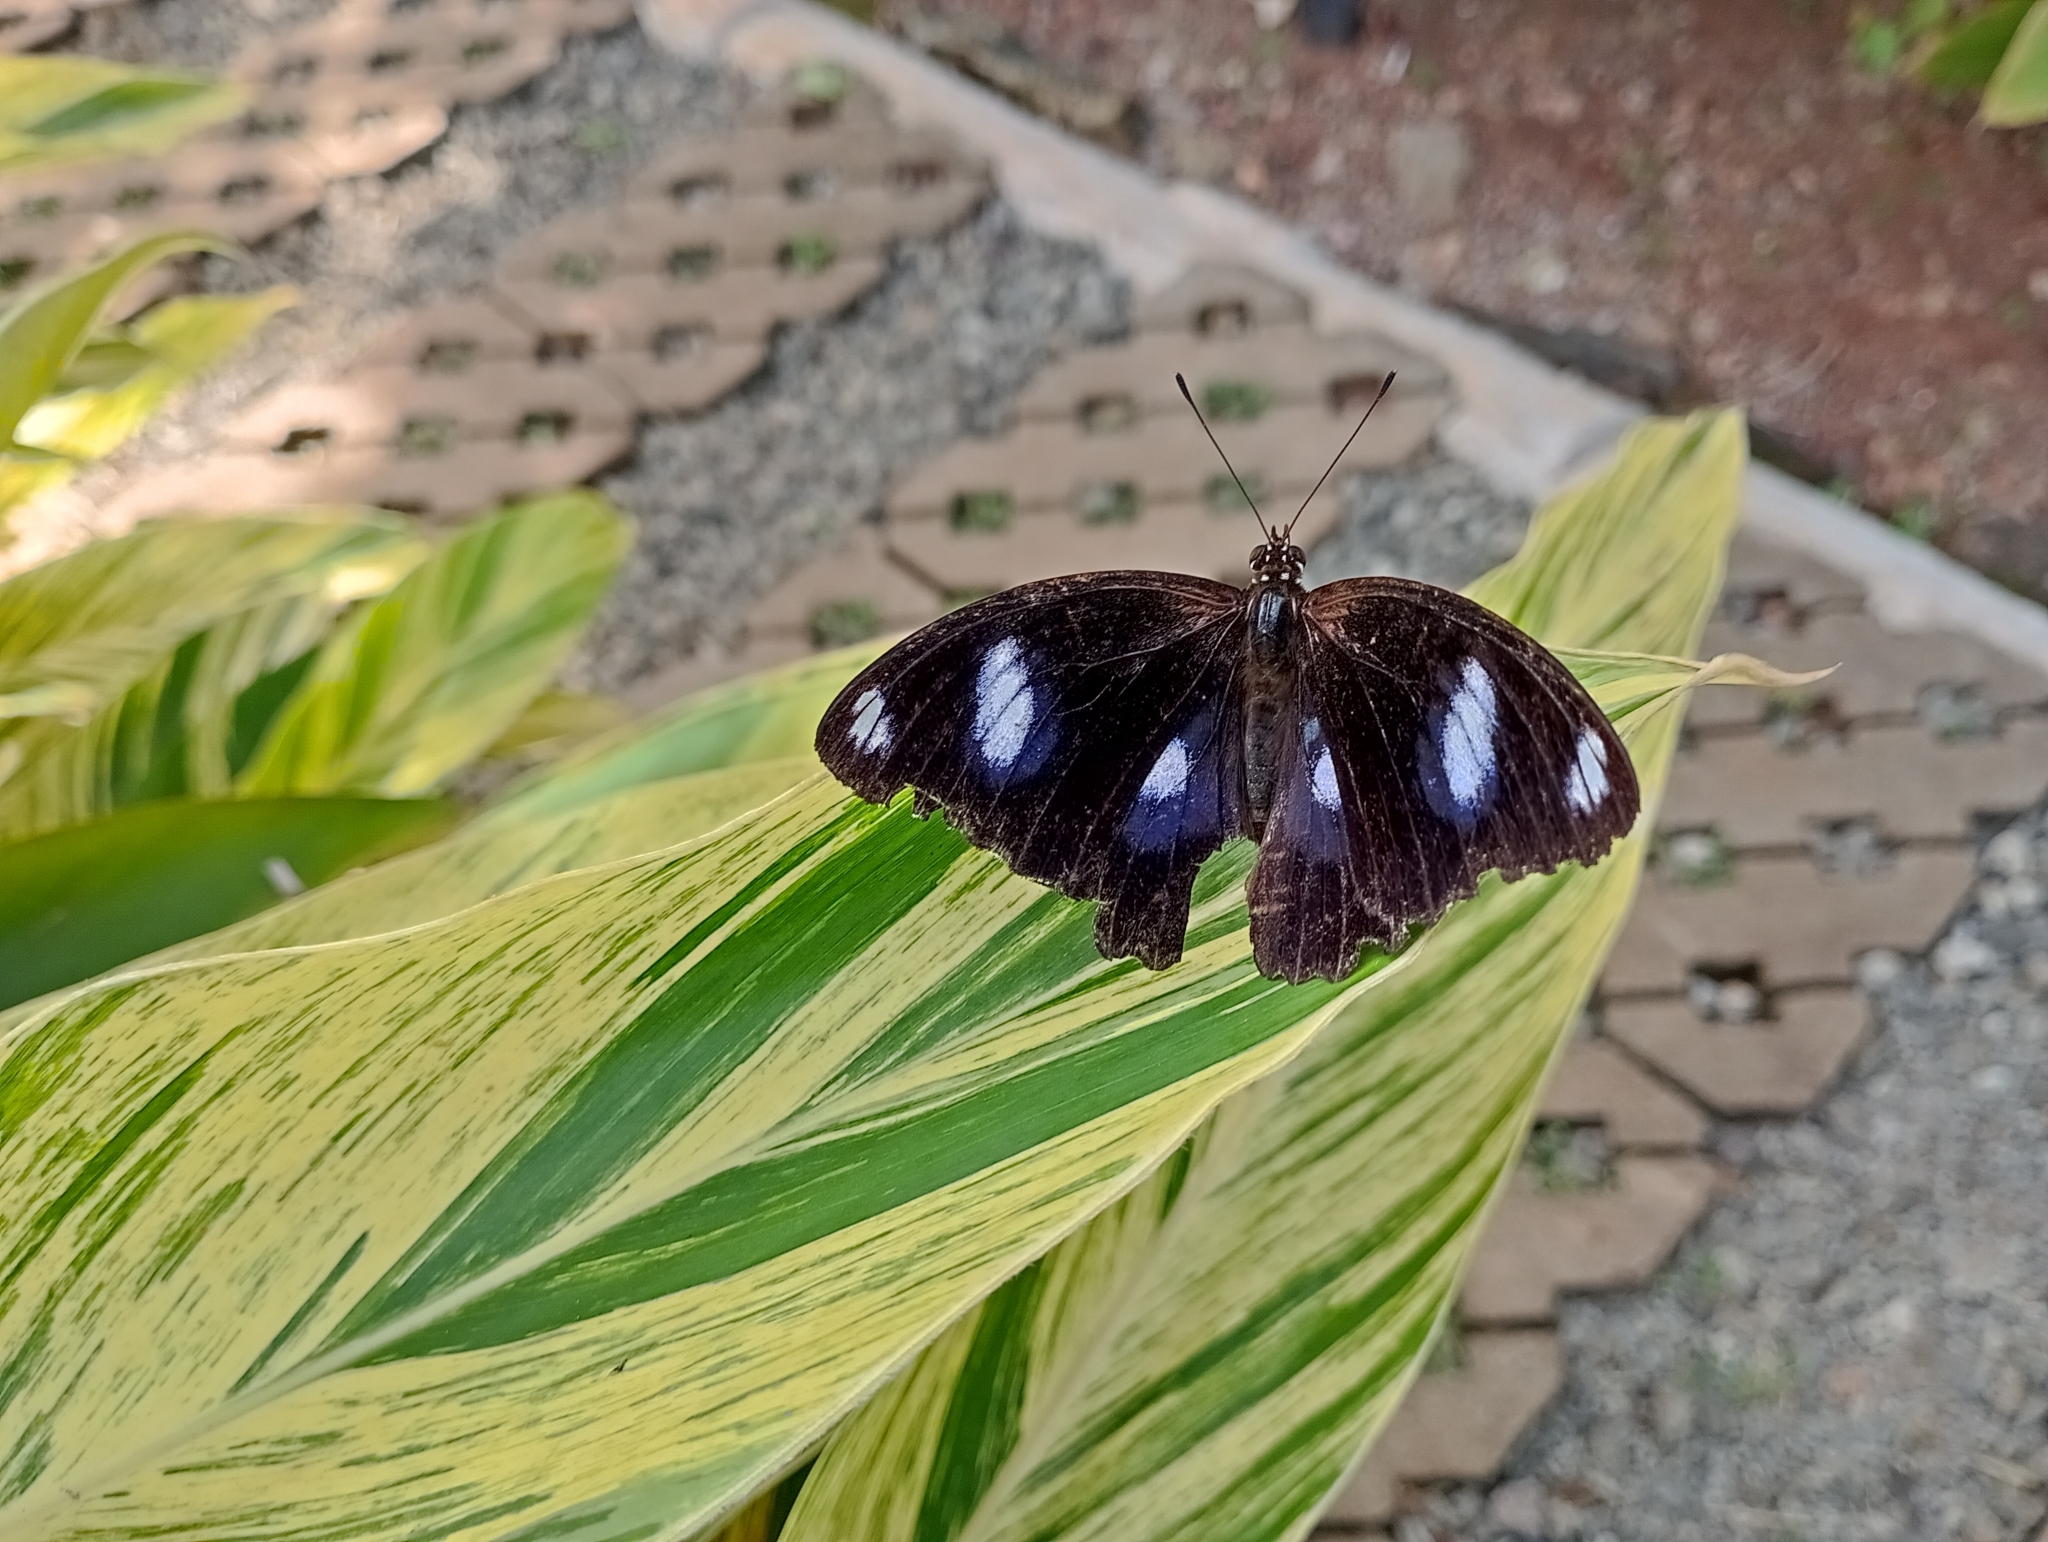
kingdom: Animalia
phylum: Arthropoda
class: Insecta
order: Lepidoptera
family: Nymphalidae
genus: Hypolimnas
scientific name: Hypolimnas bolina
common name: Great eggfly
